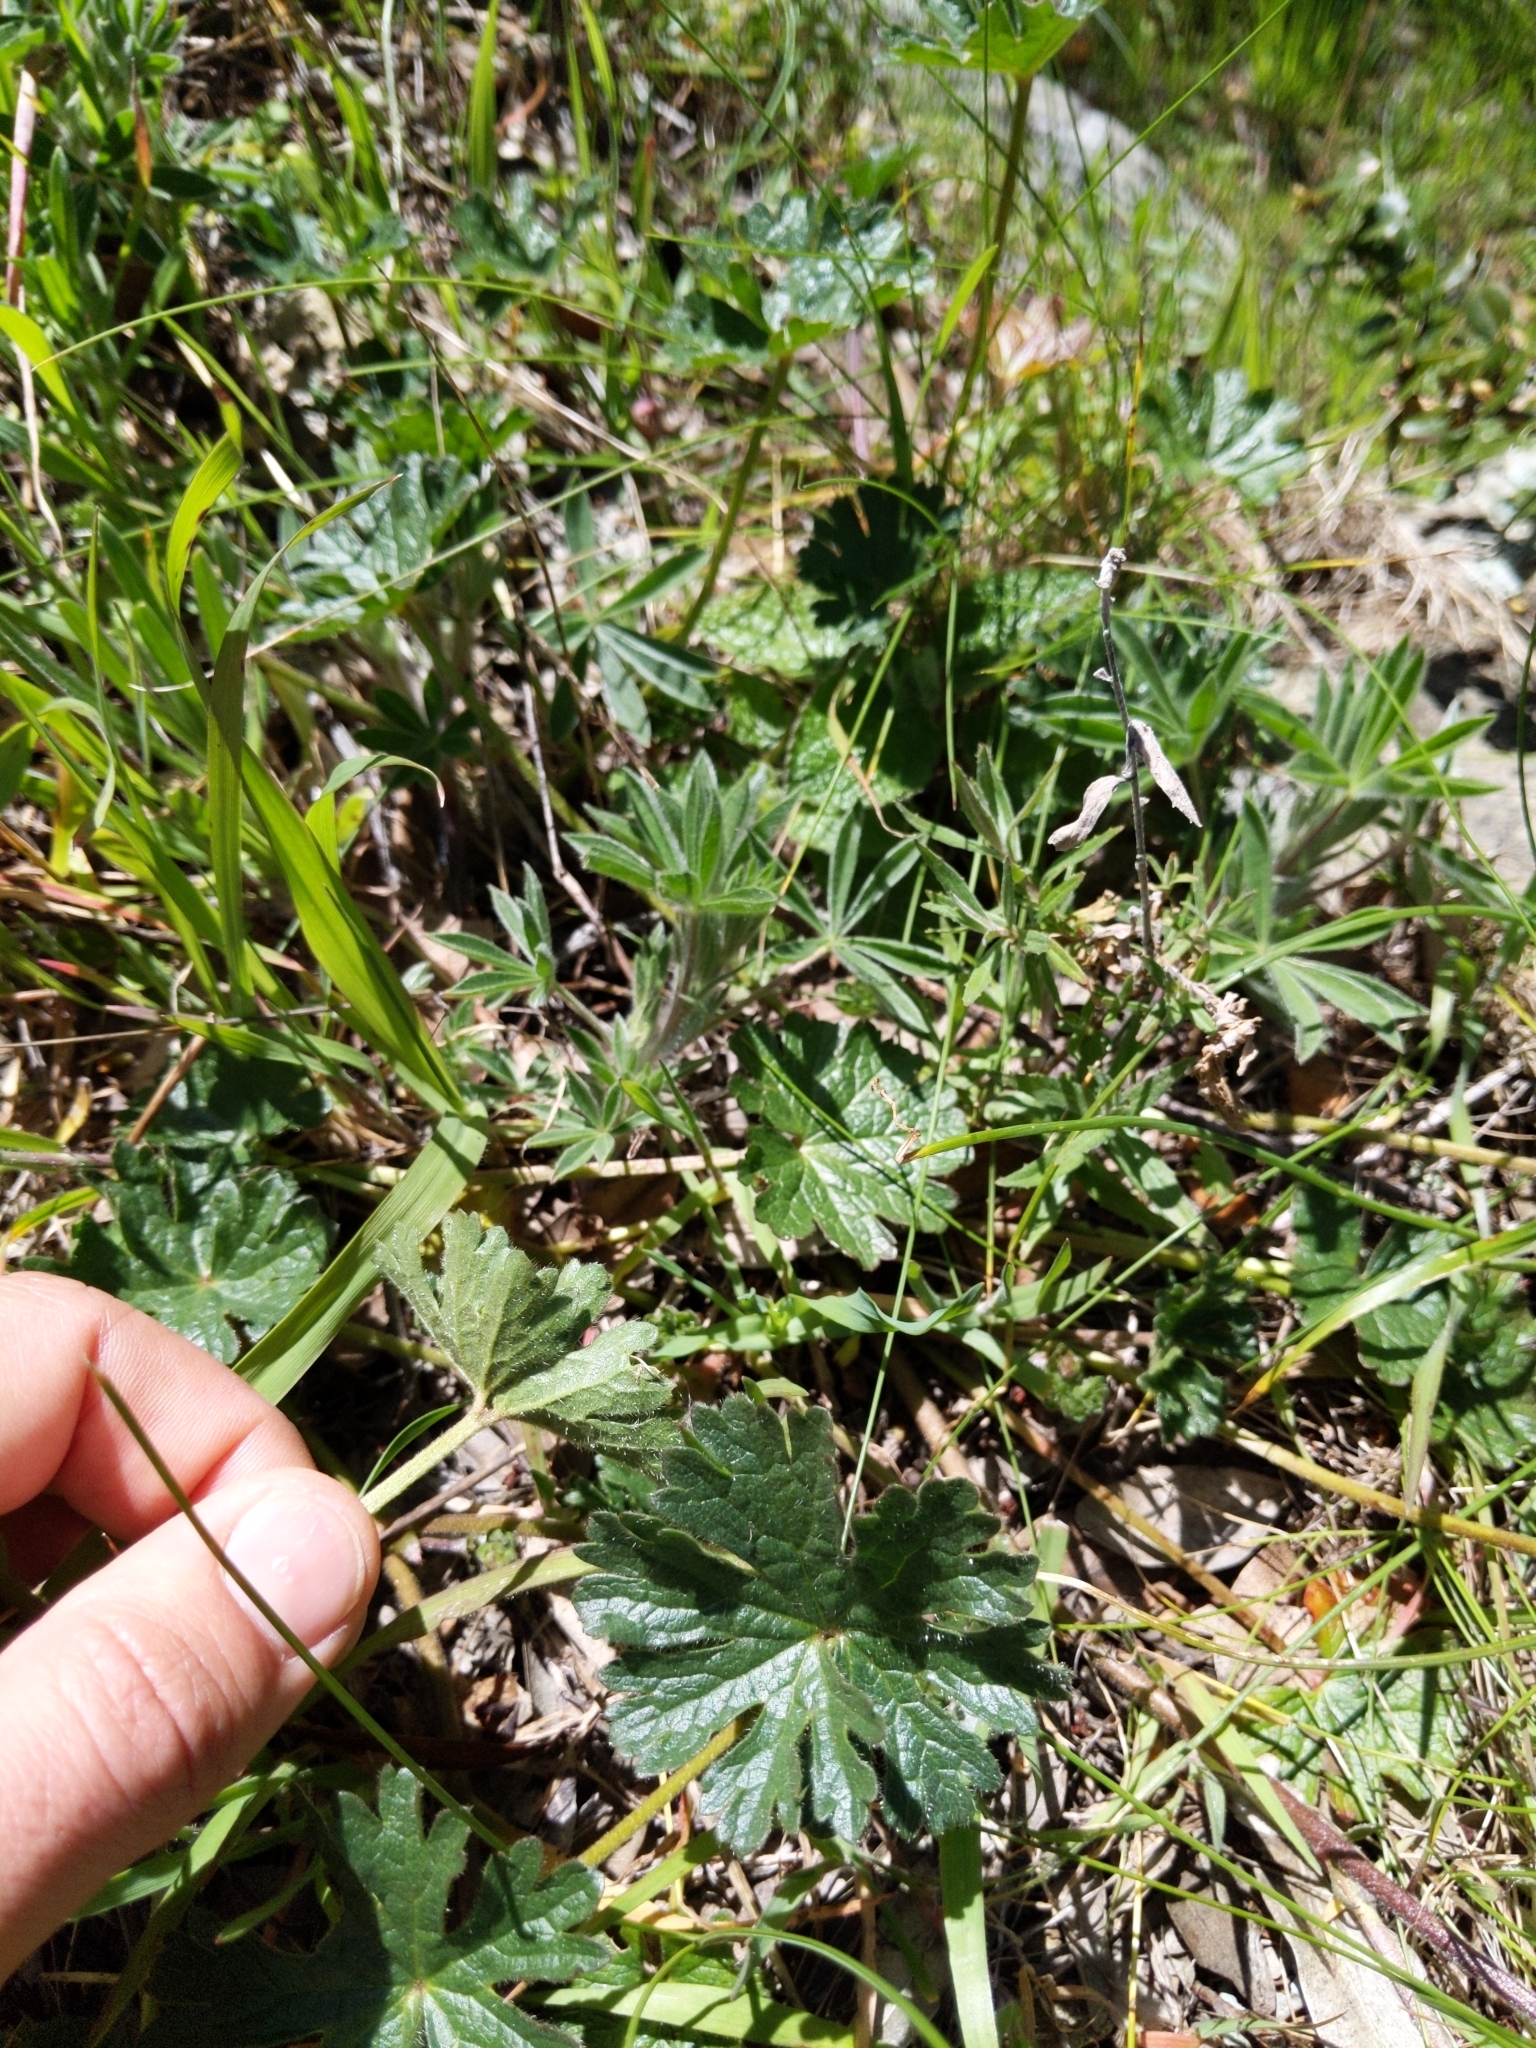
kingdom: Plantae
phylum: Tracheophyta
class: Magnoliopsida
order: Malvales
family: Malvaceae
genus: Sidalcea
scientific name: Sidalcea malviflora
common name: Greek mallow
